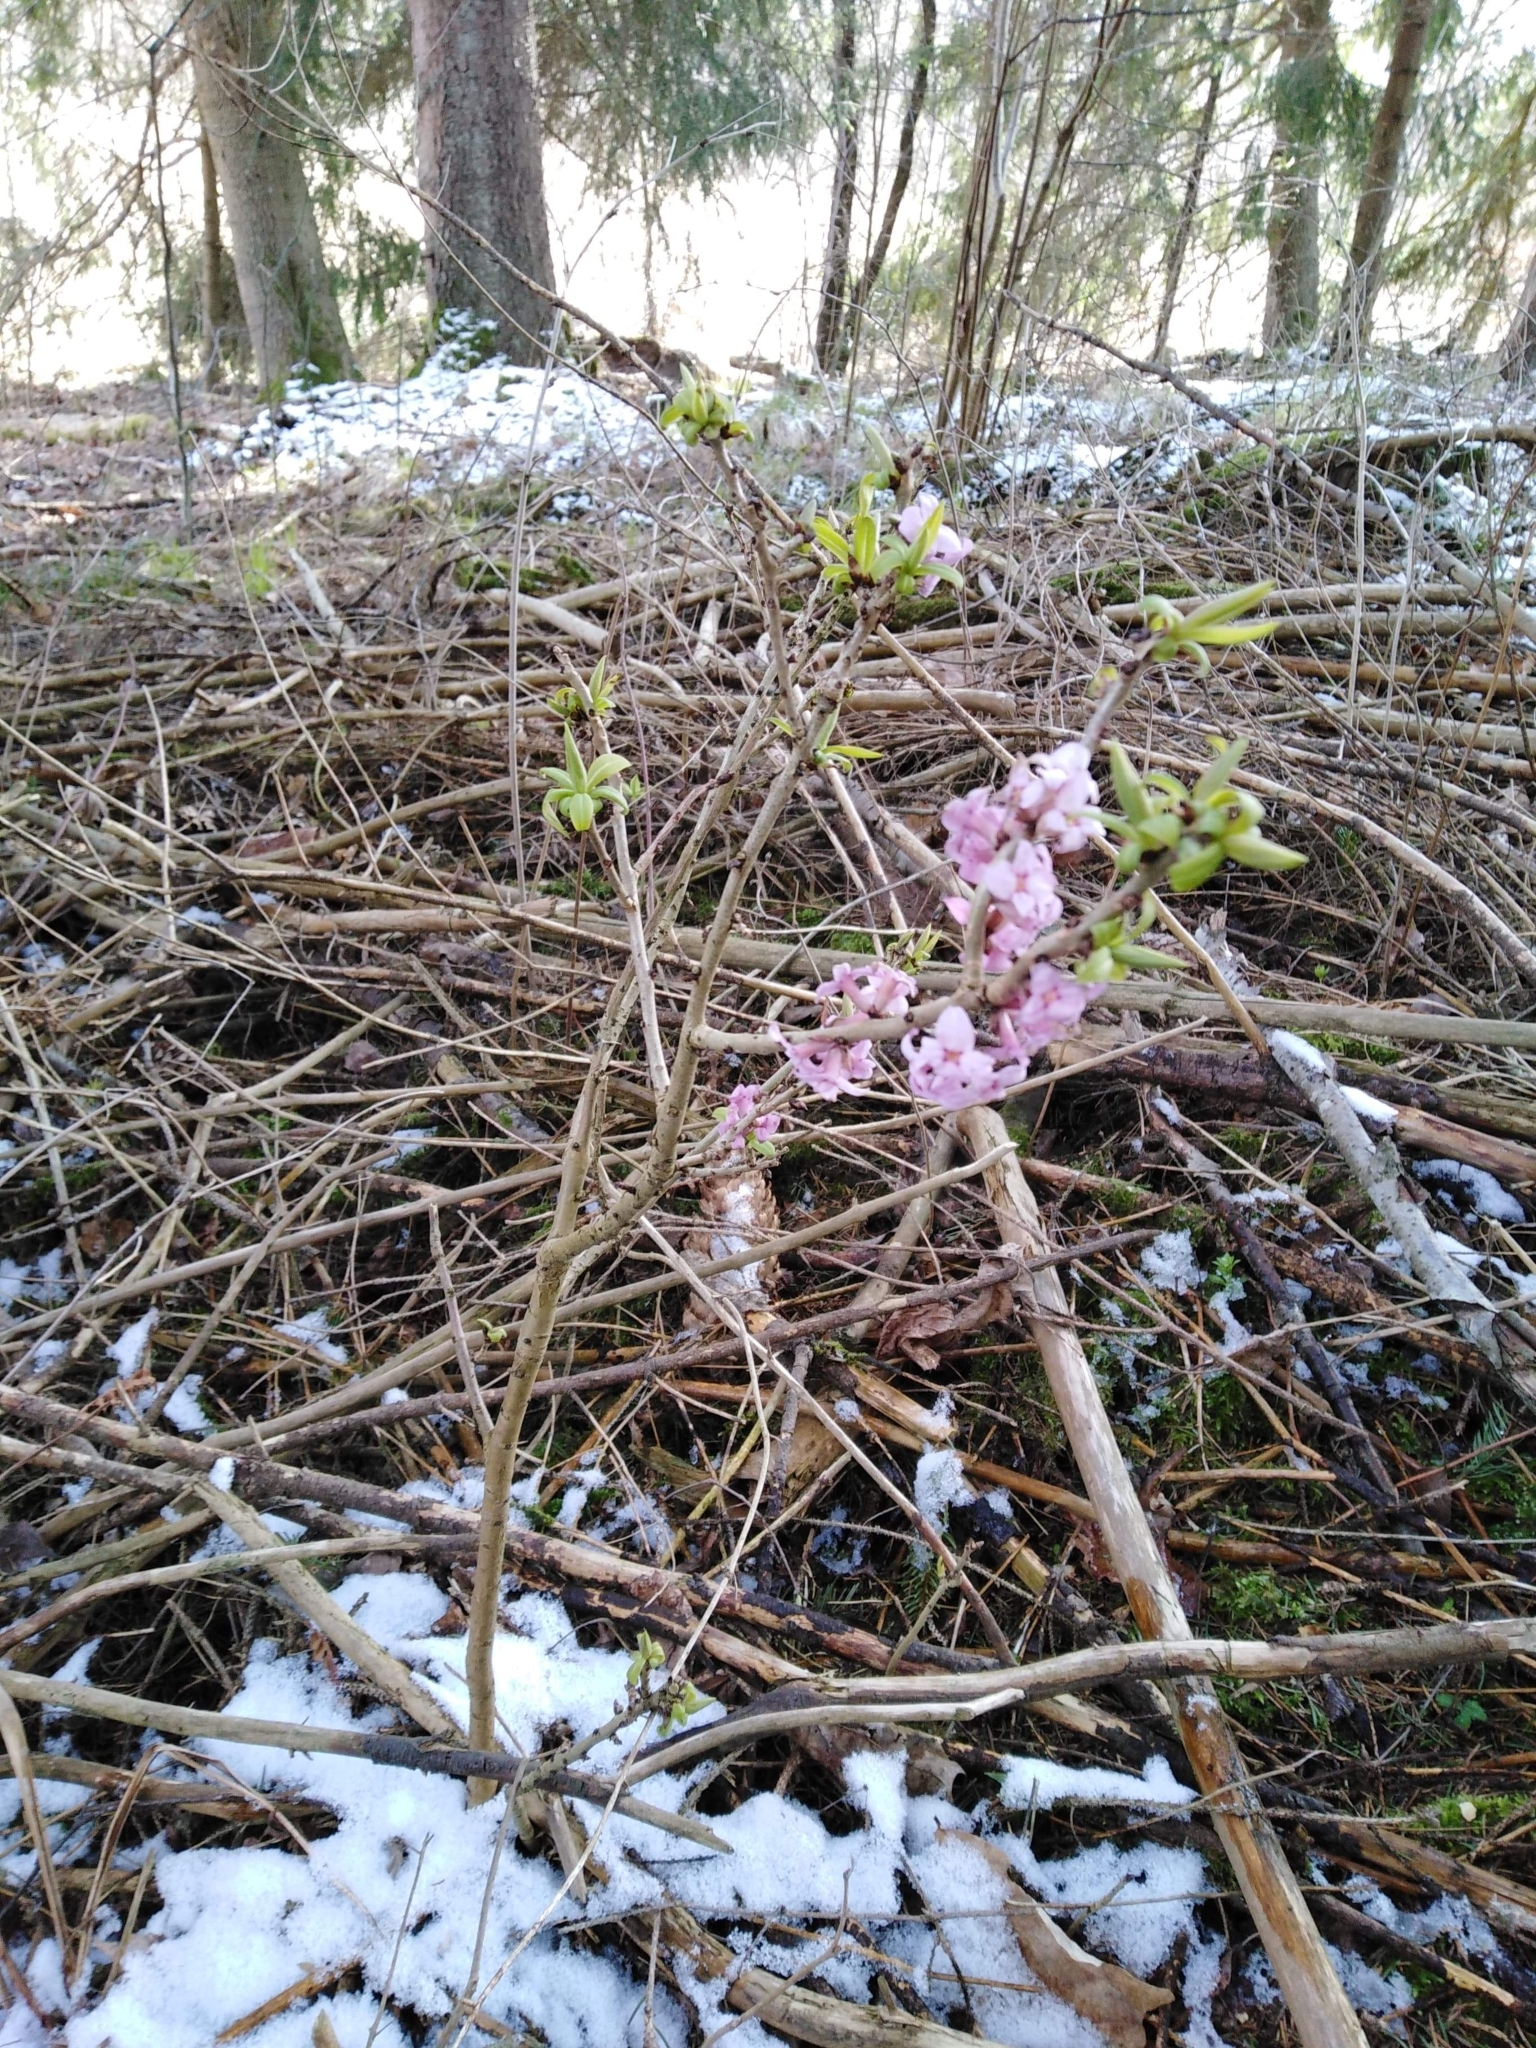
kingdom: Plantae
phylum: Tracheophyta
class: Magnoliopsida
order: Malvales
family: Thymelaeaceae
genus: Daphne
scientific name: Daphne mezereum
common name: Mezereon
